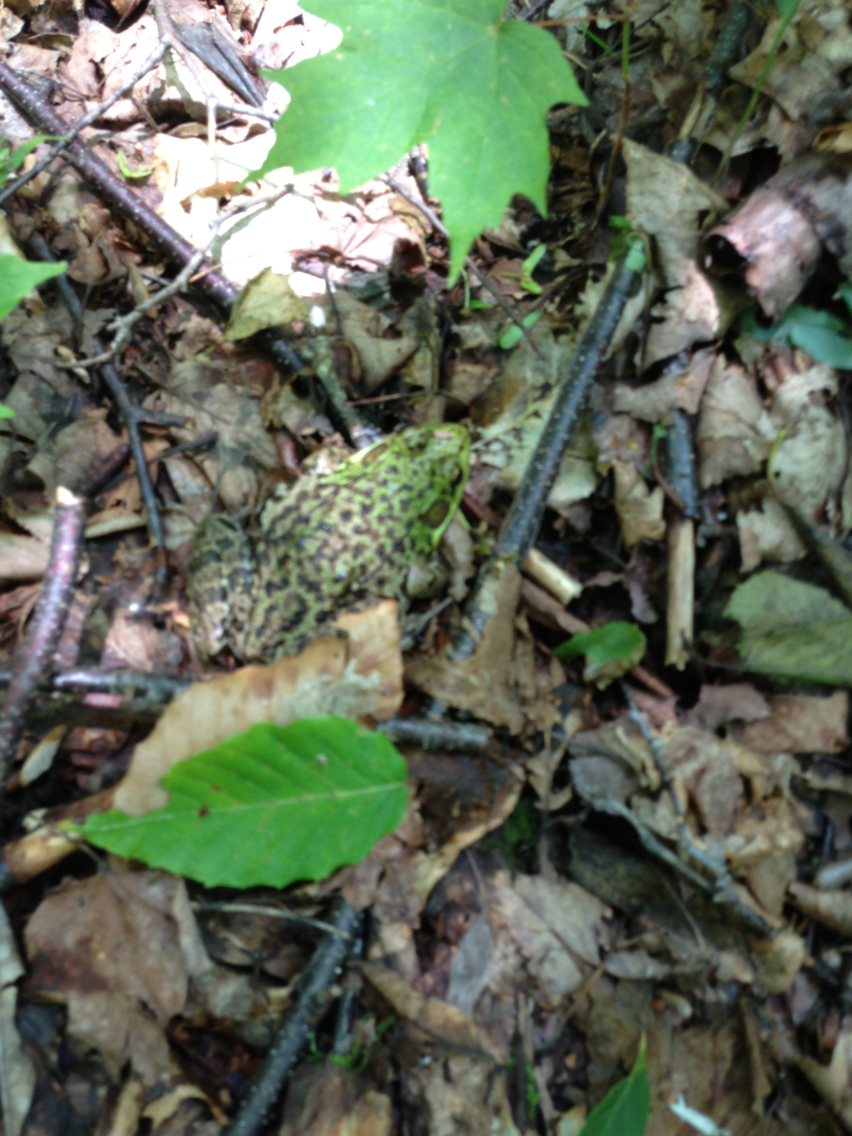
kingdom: Animalia
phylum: Chordata
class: Amphibia
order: Anura
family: Ranidae
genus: Lithobates
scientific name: Lithobates clamitans
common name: Green frog
